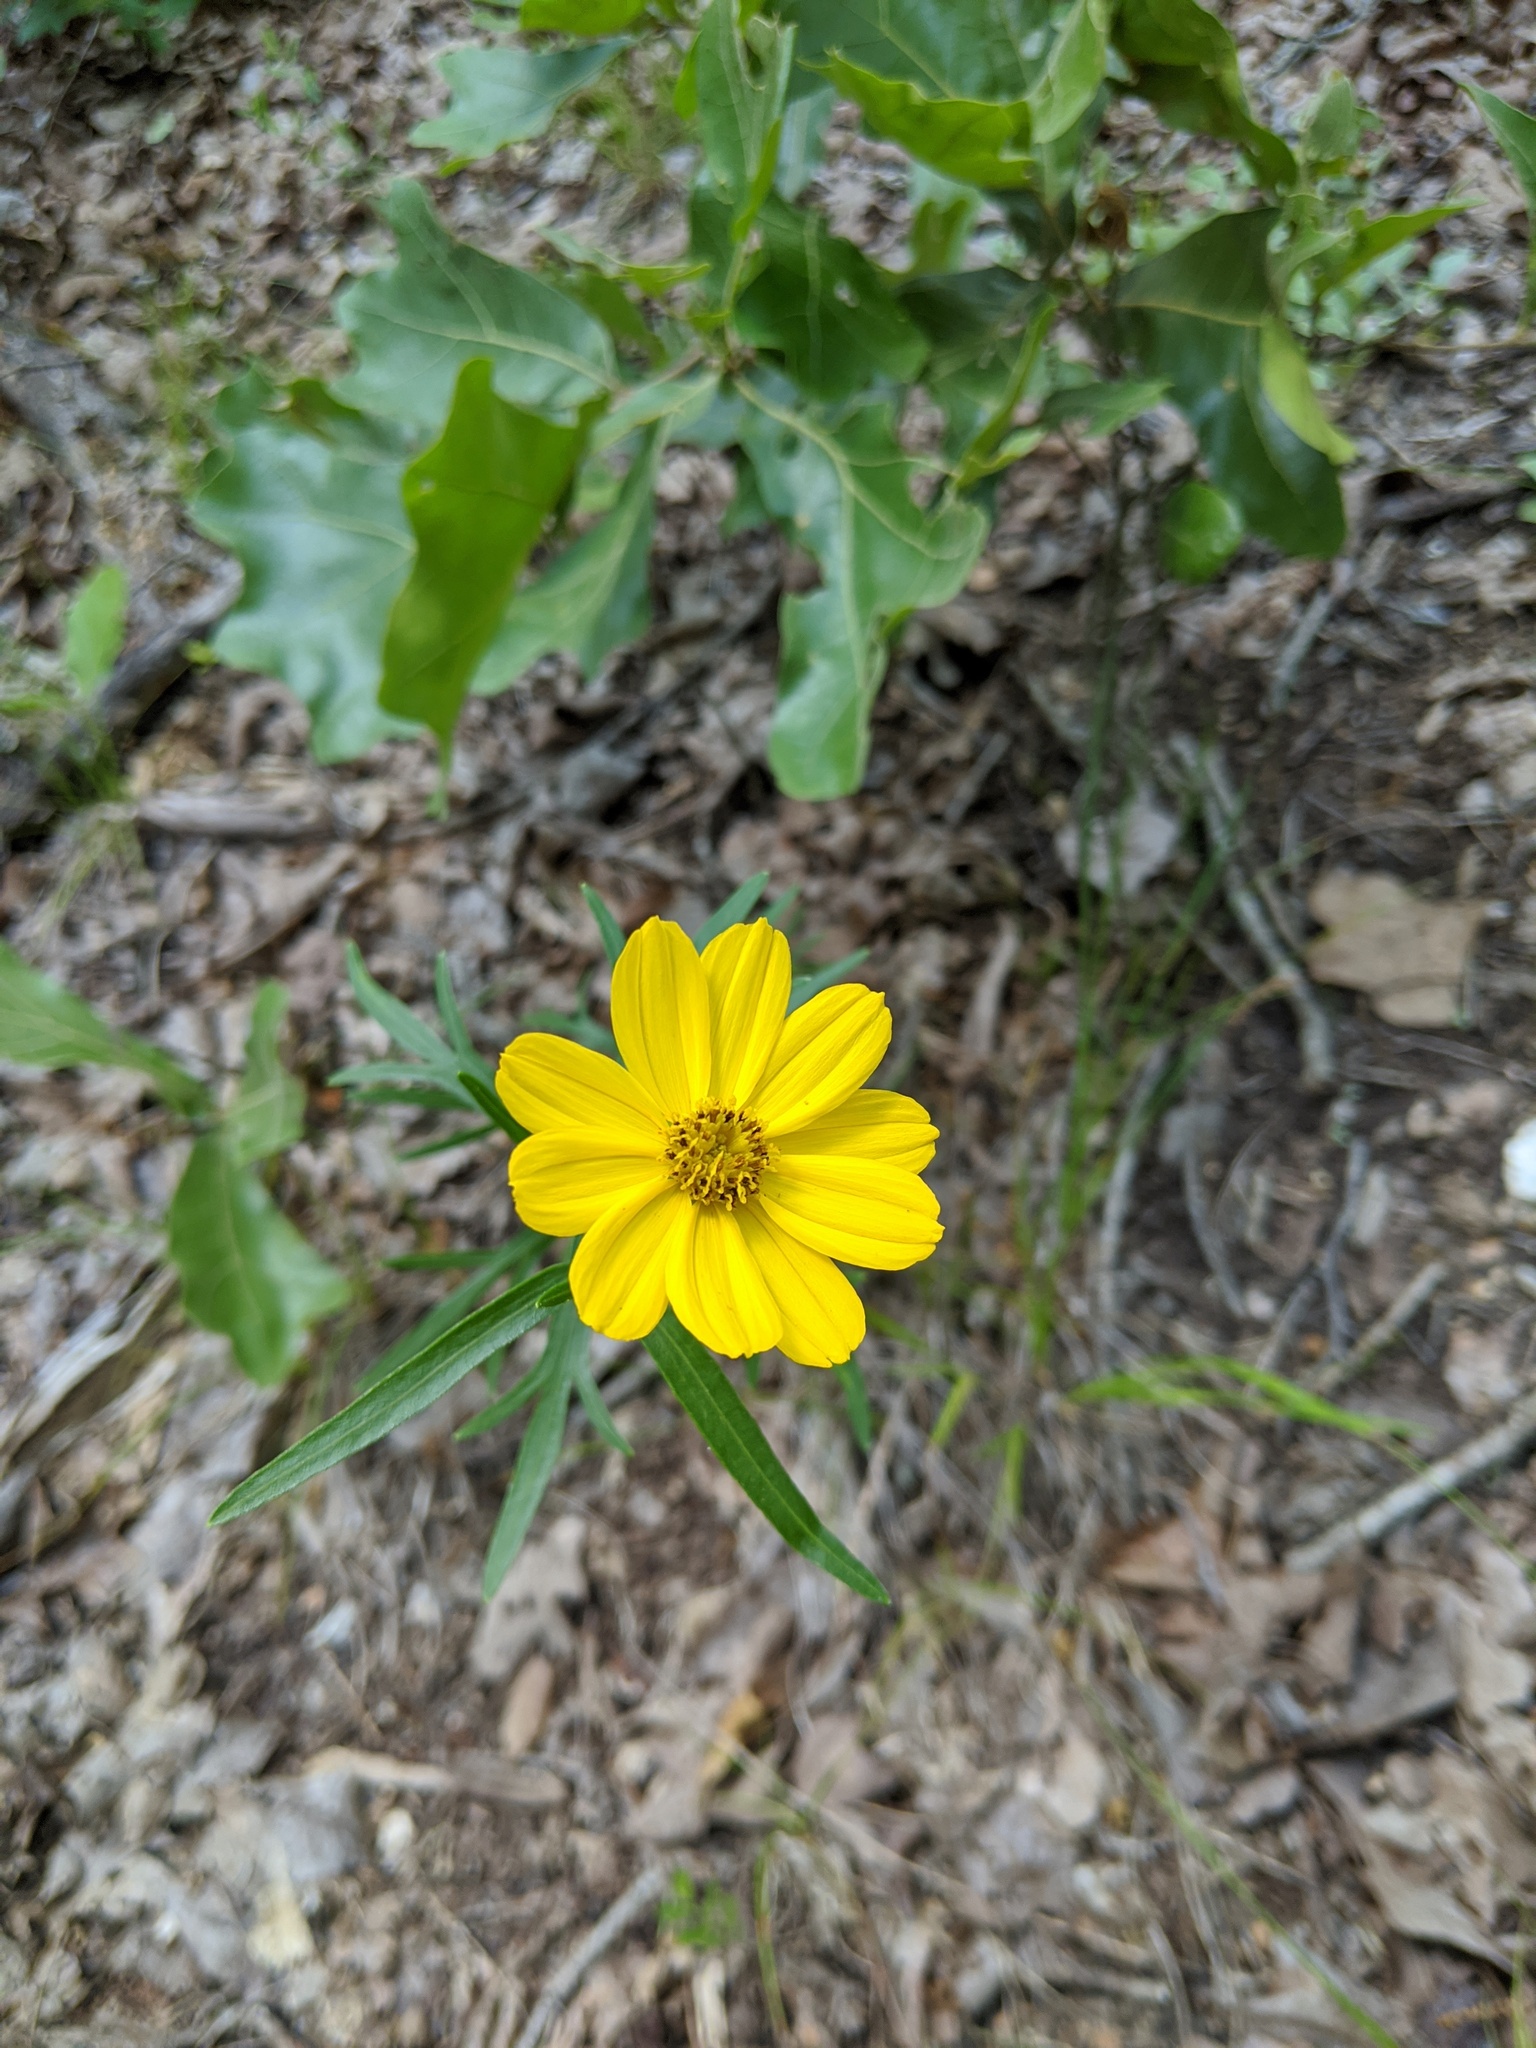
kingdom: Plantae
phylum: Tracheophyta
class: Magnoliopsida
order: Asterales
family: Asteraceae
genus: Coreopsis
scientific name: Coreopsis palmata
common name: Prairie coreopsis
